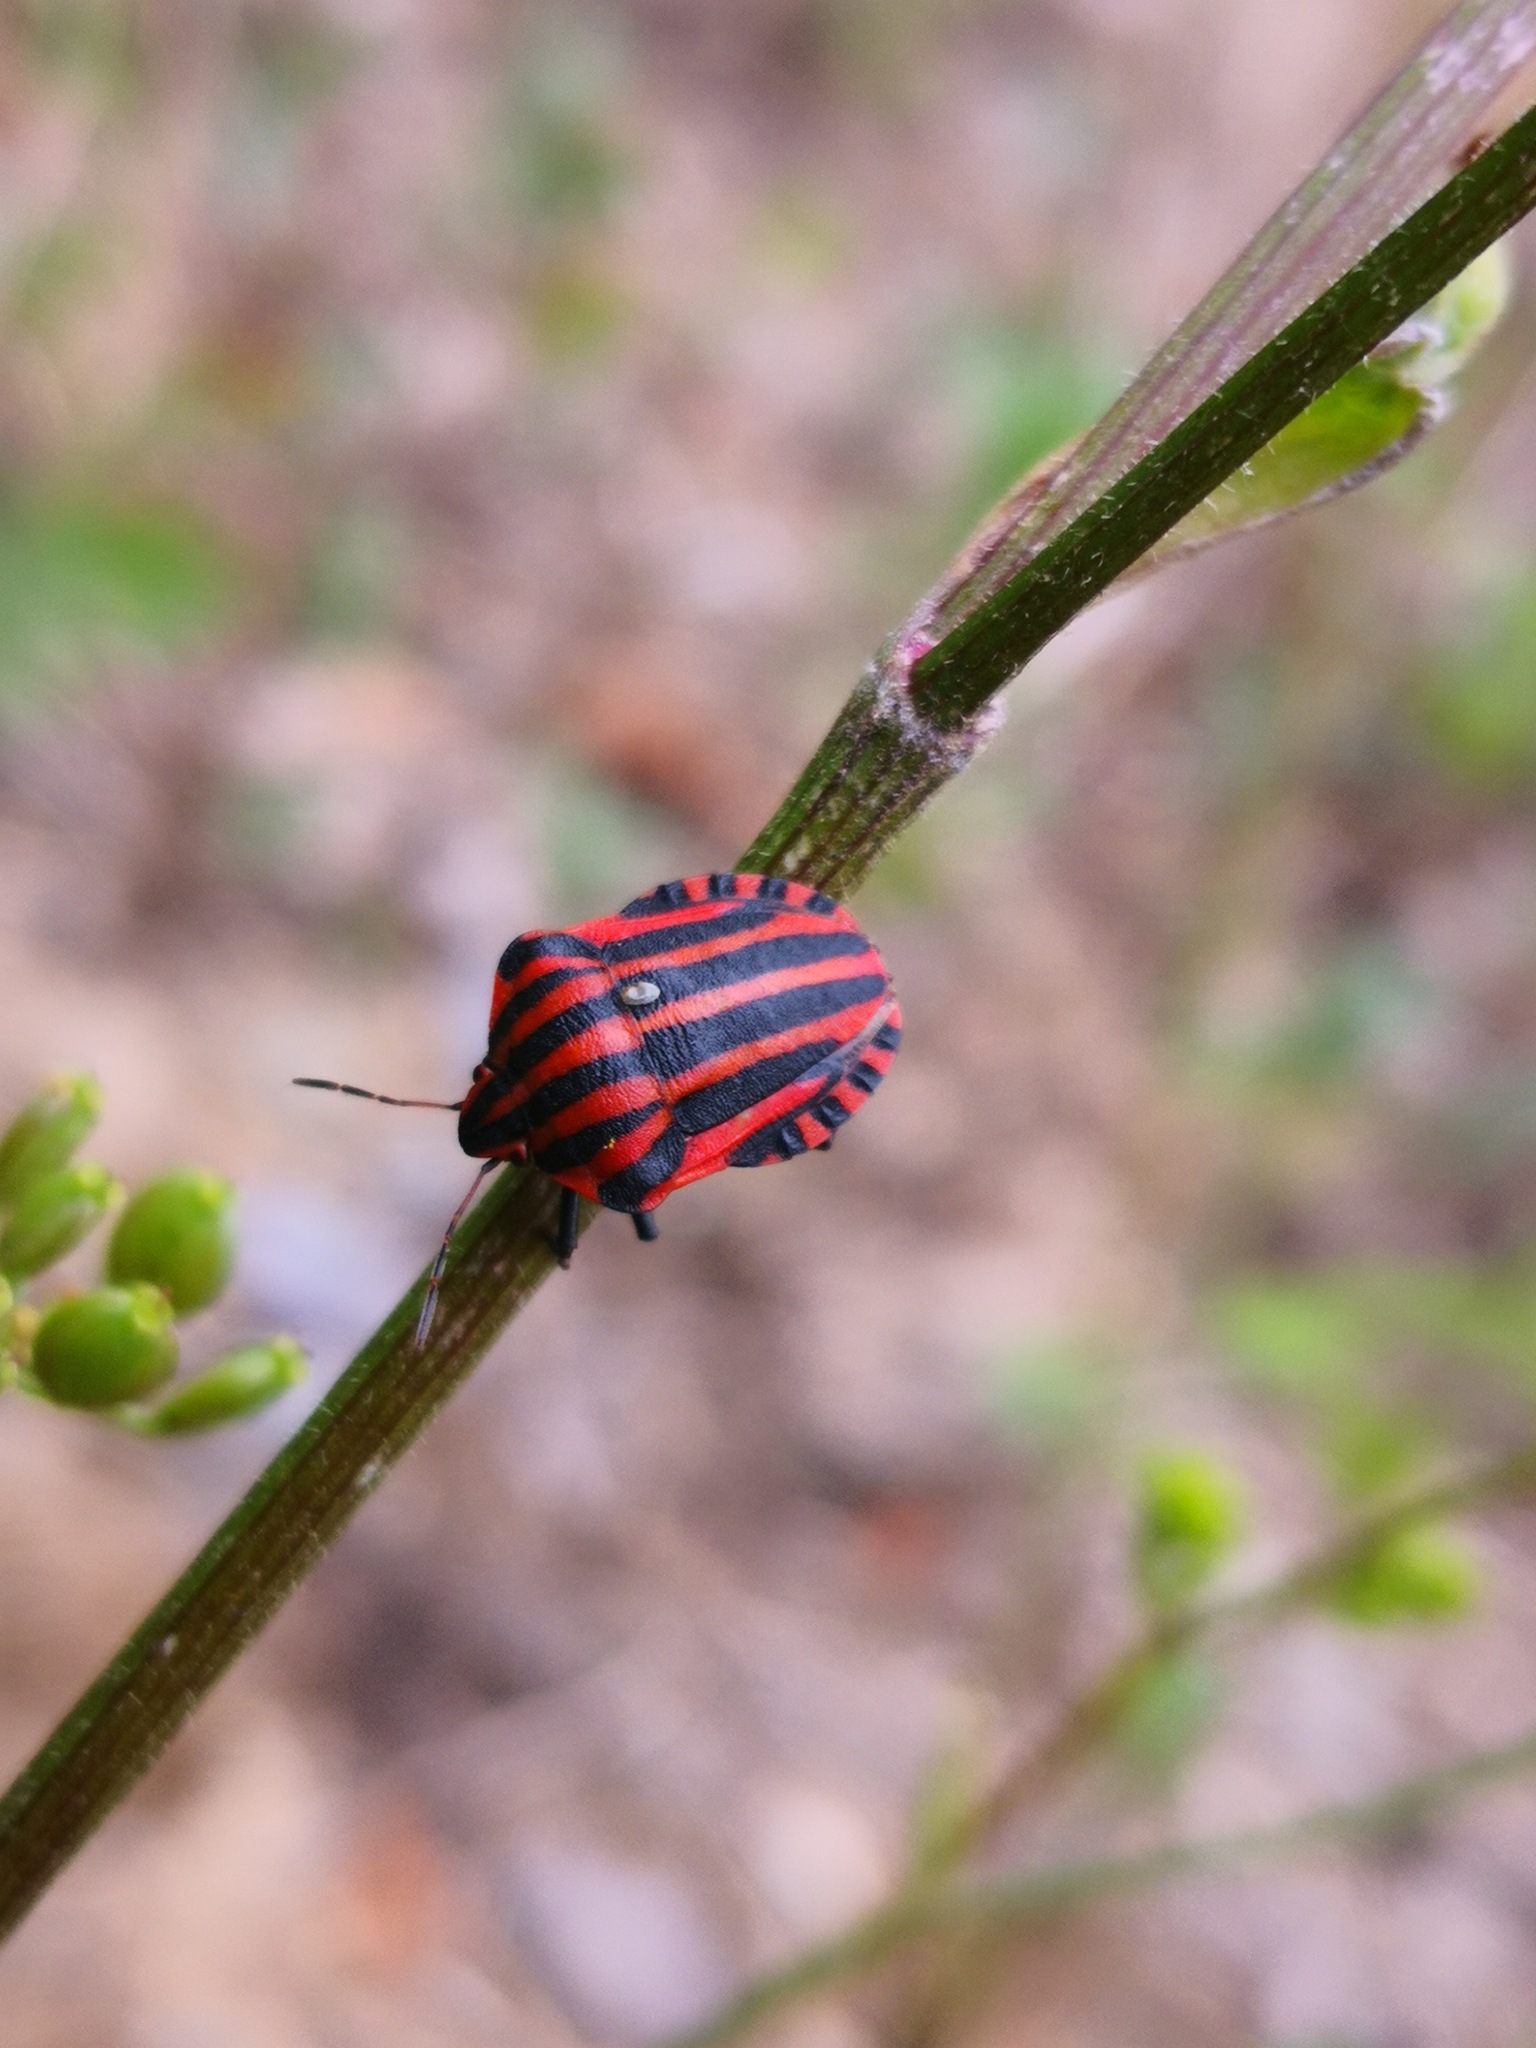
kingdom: Animalia
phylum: Arthropoda
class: Insecta
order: Hemiptera
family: Pentatomidae
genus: Graphosoma
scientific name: Graphosoma italicum
